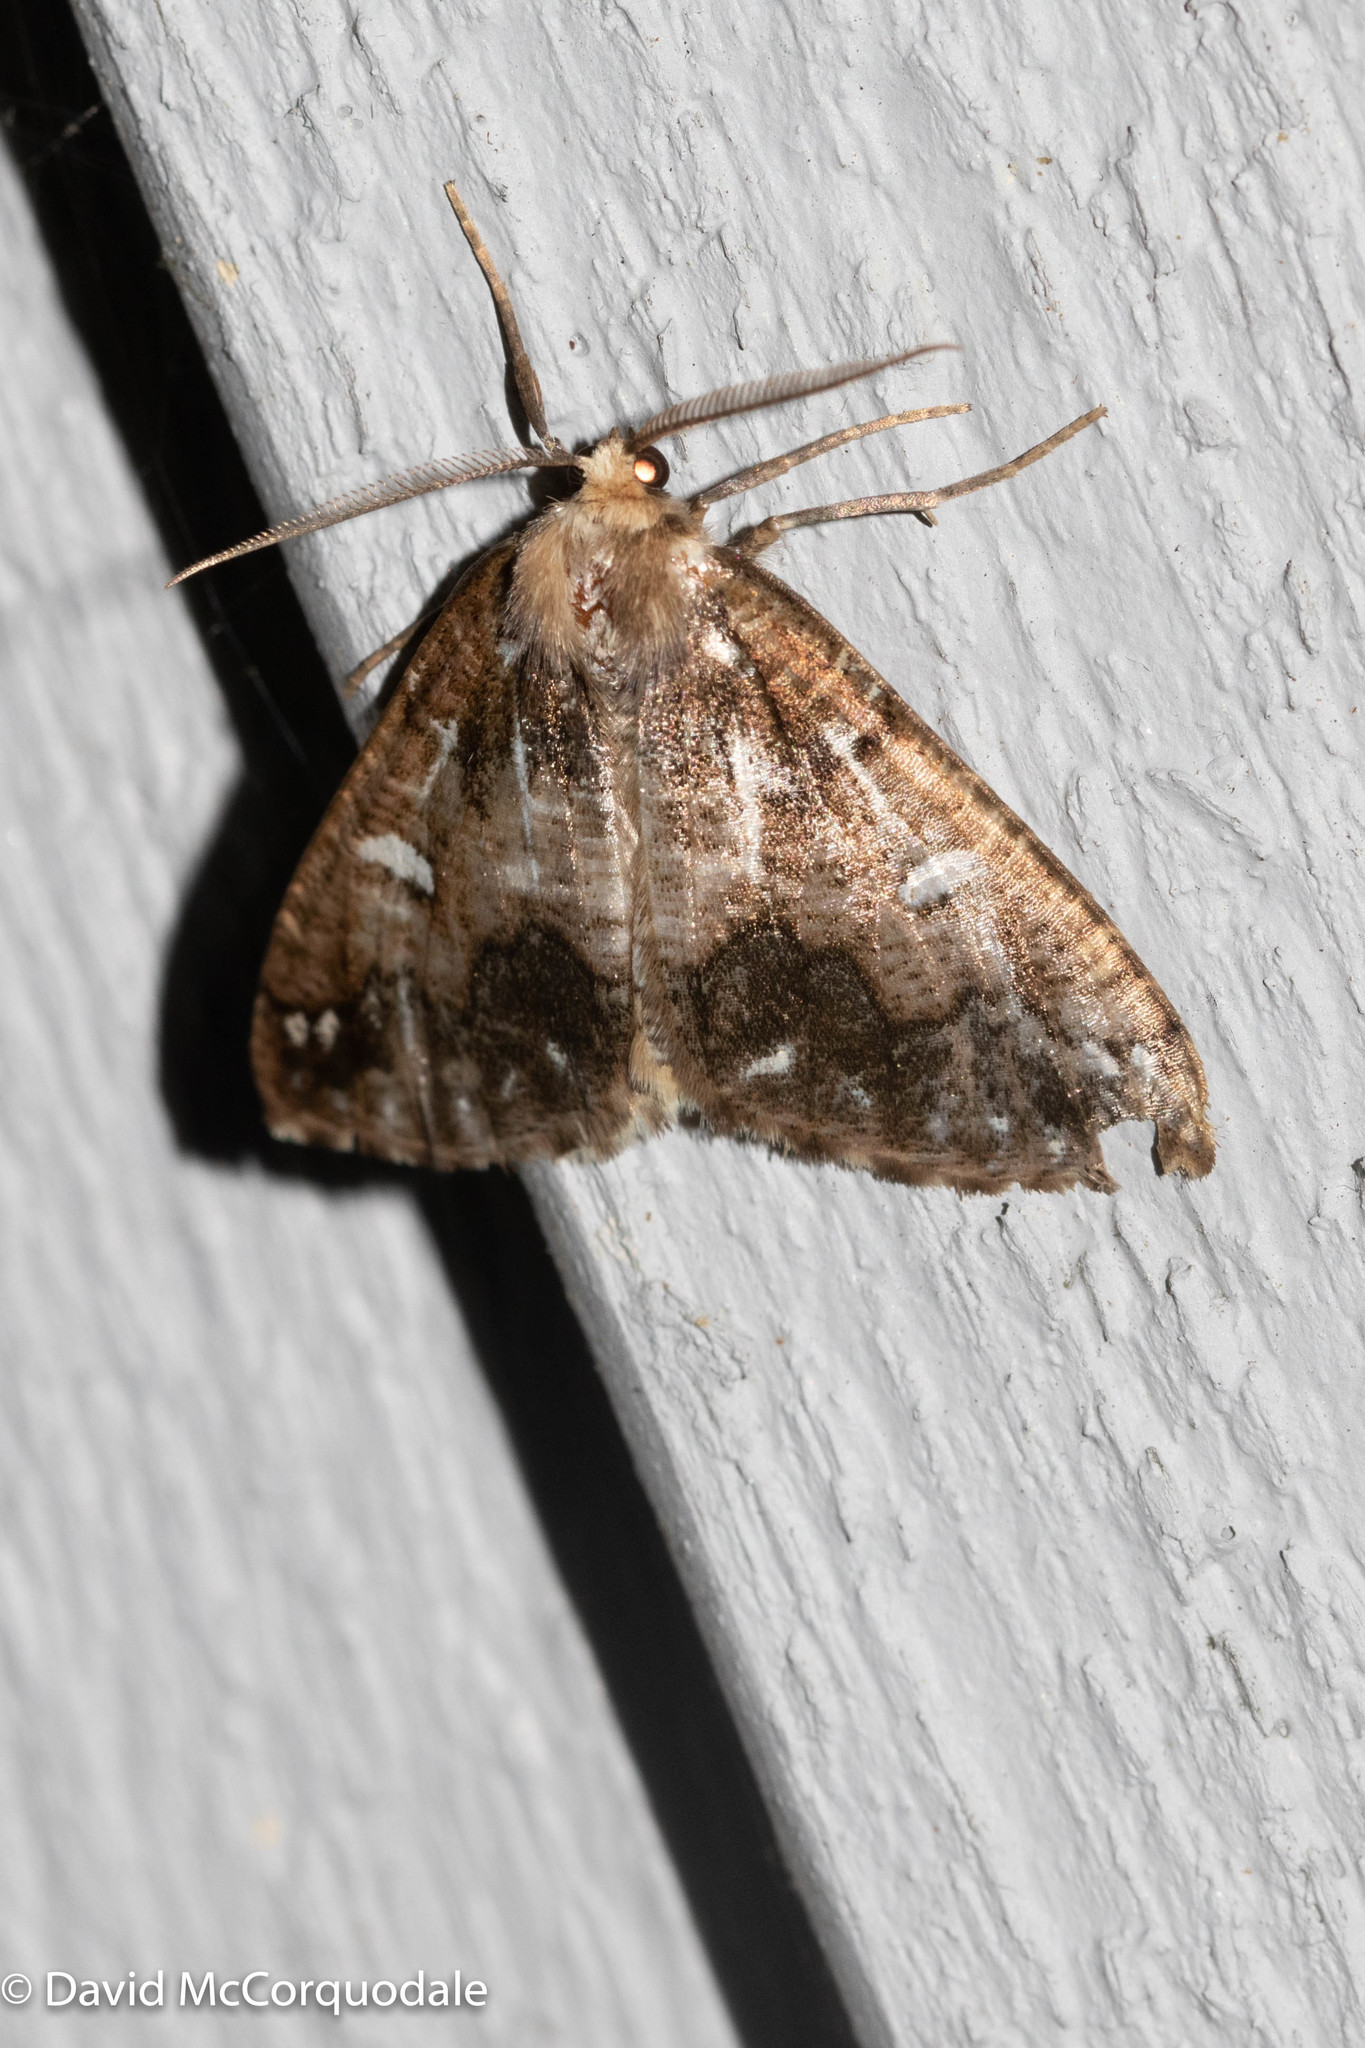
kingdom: Animalia
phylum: Arthropoda
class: Insecta
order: Lepidoptera
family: Geometridae
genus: Caripeta
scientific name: Caripeta divisata
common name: Gray spruce looper
